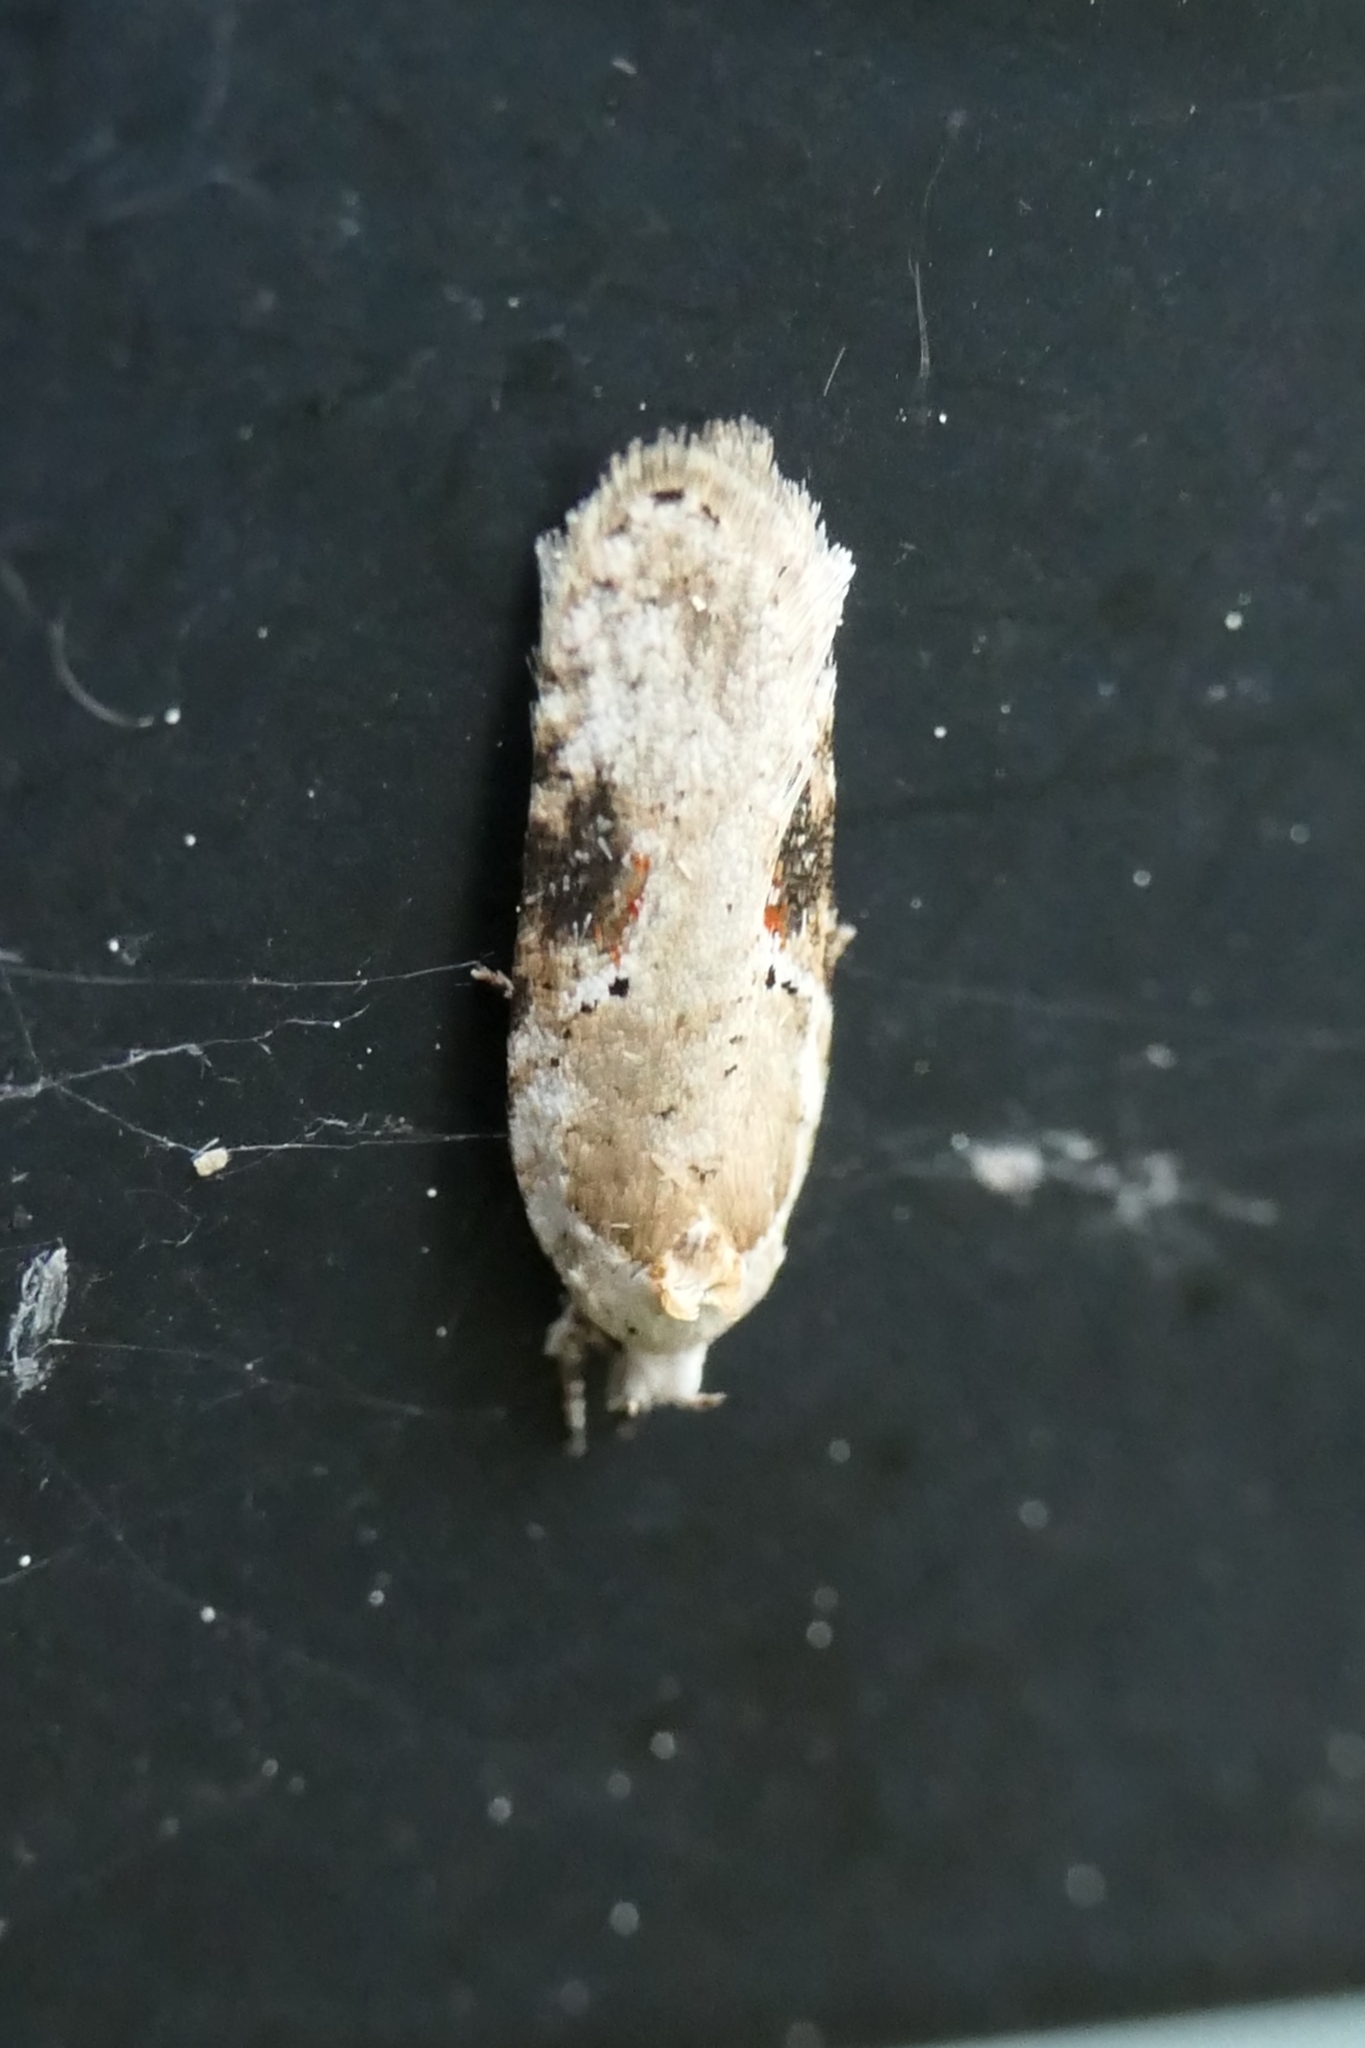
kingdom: Animalia
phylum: Arthropoda
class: Insecta
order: Lepidoptera
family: Depressariidae
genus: Agonopterix
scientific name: Agonopterix alstroemeriana
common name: Moth
